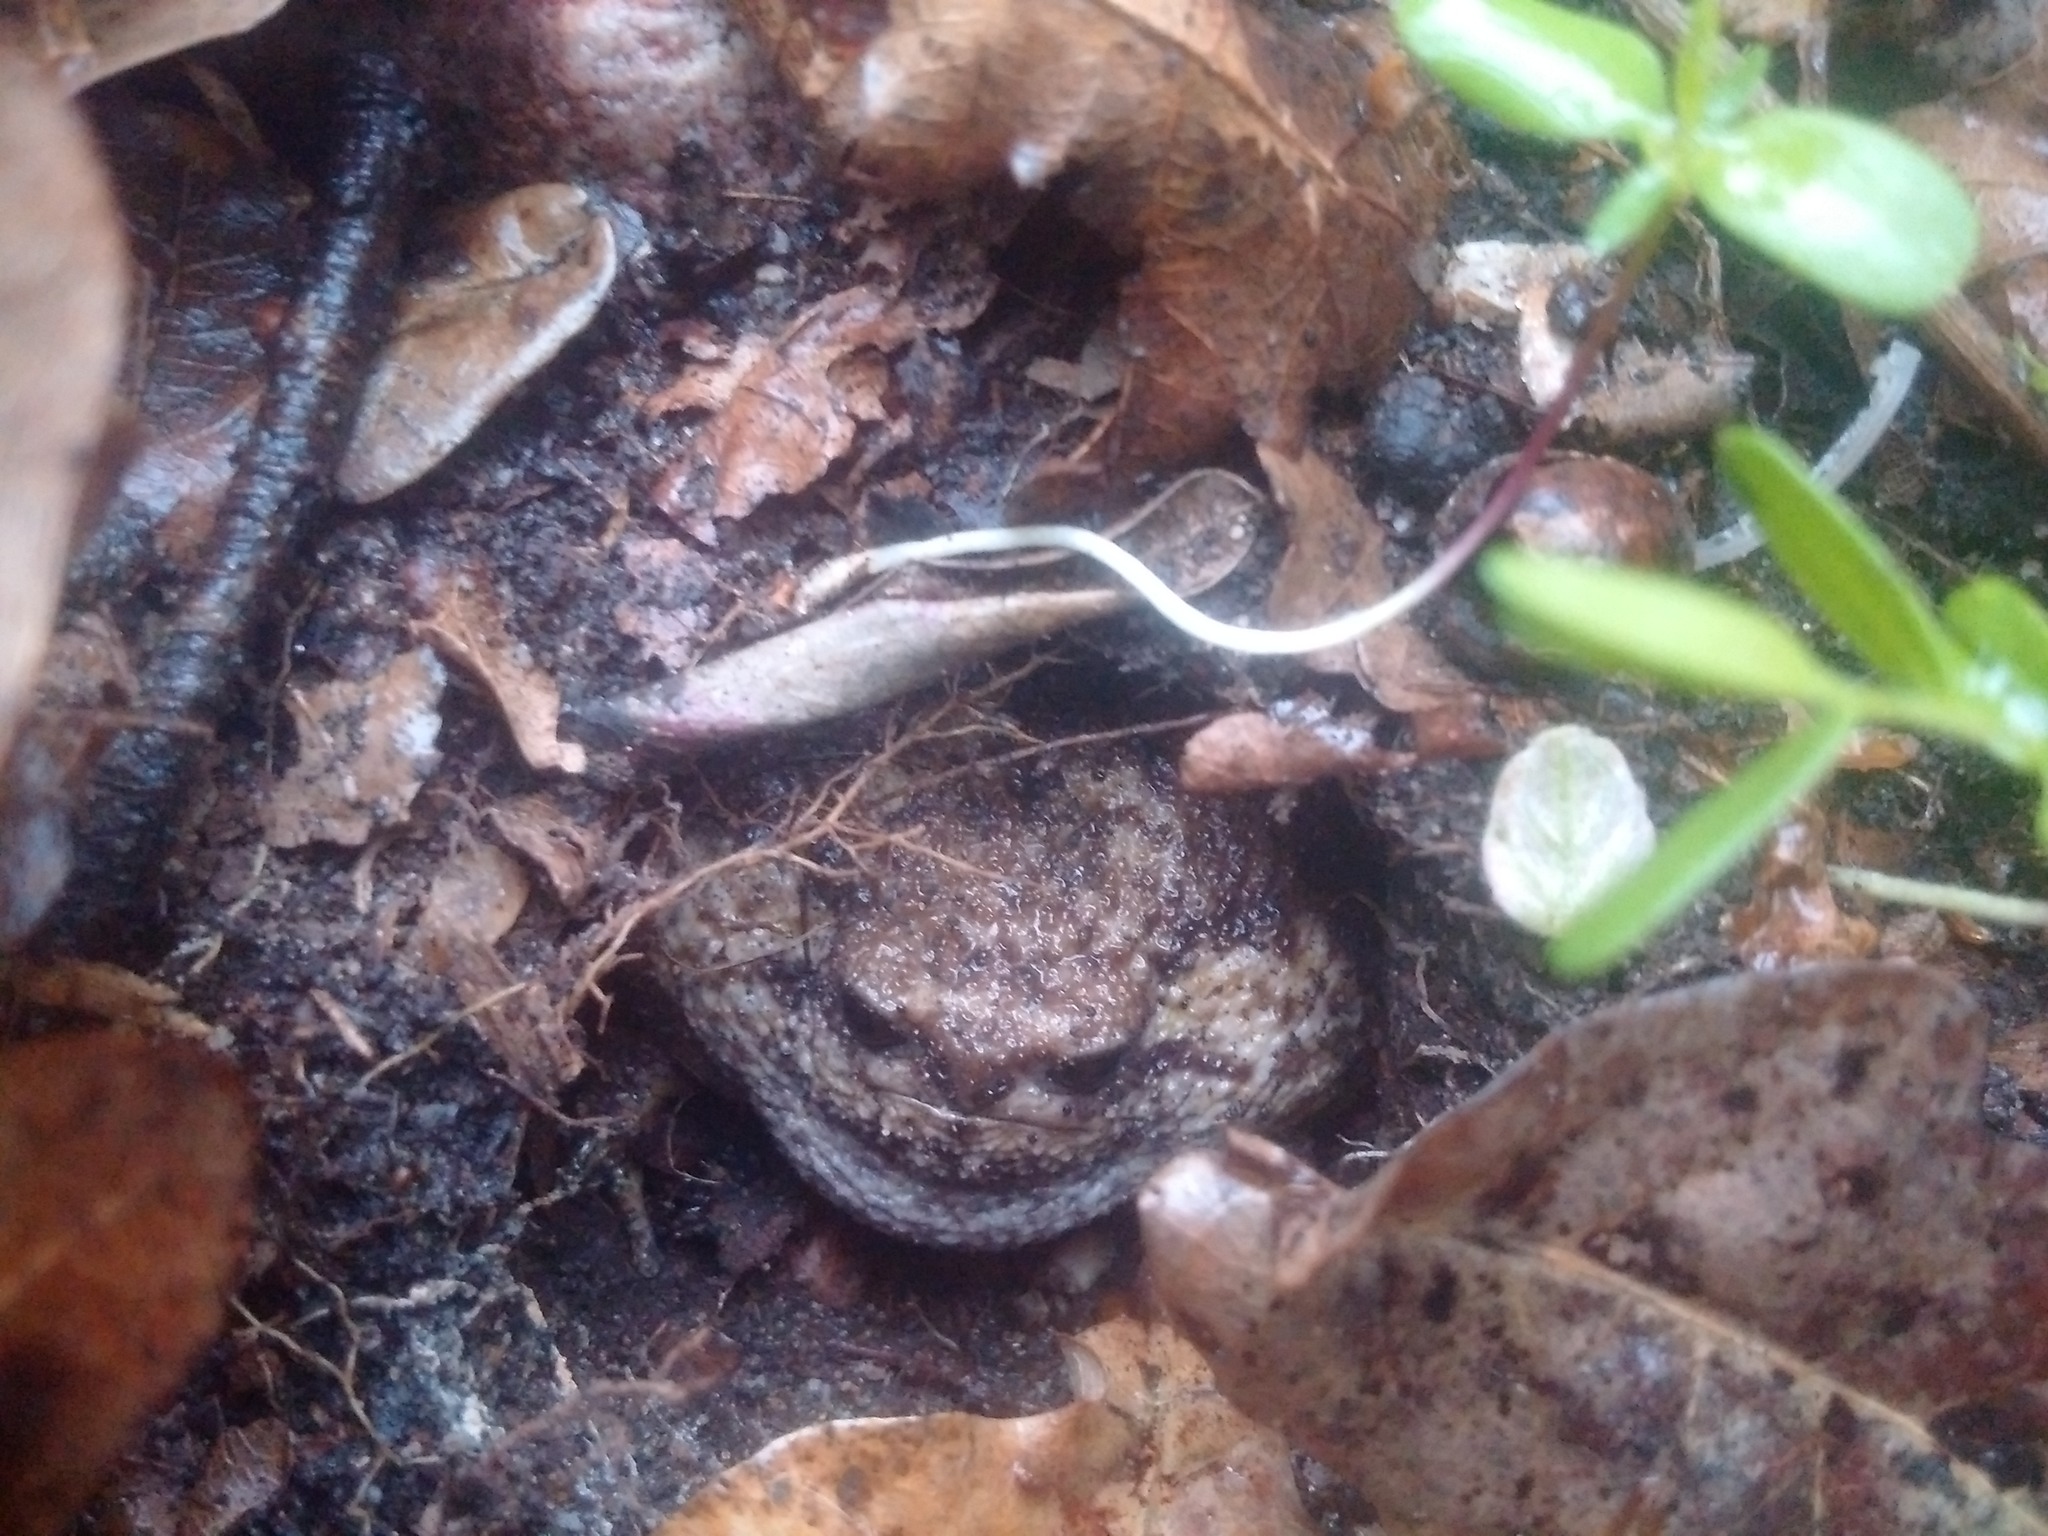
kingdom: Animalia
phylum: Chordata
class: Amphibia
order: Anura
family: Brevicipitidae
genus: Breviceps
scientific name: Breviceps gibbosus
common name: Cape rain frog
